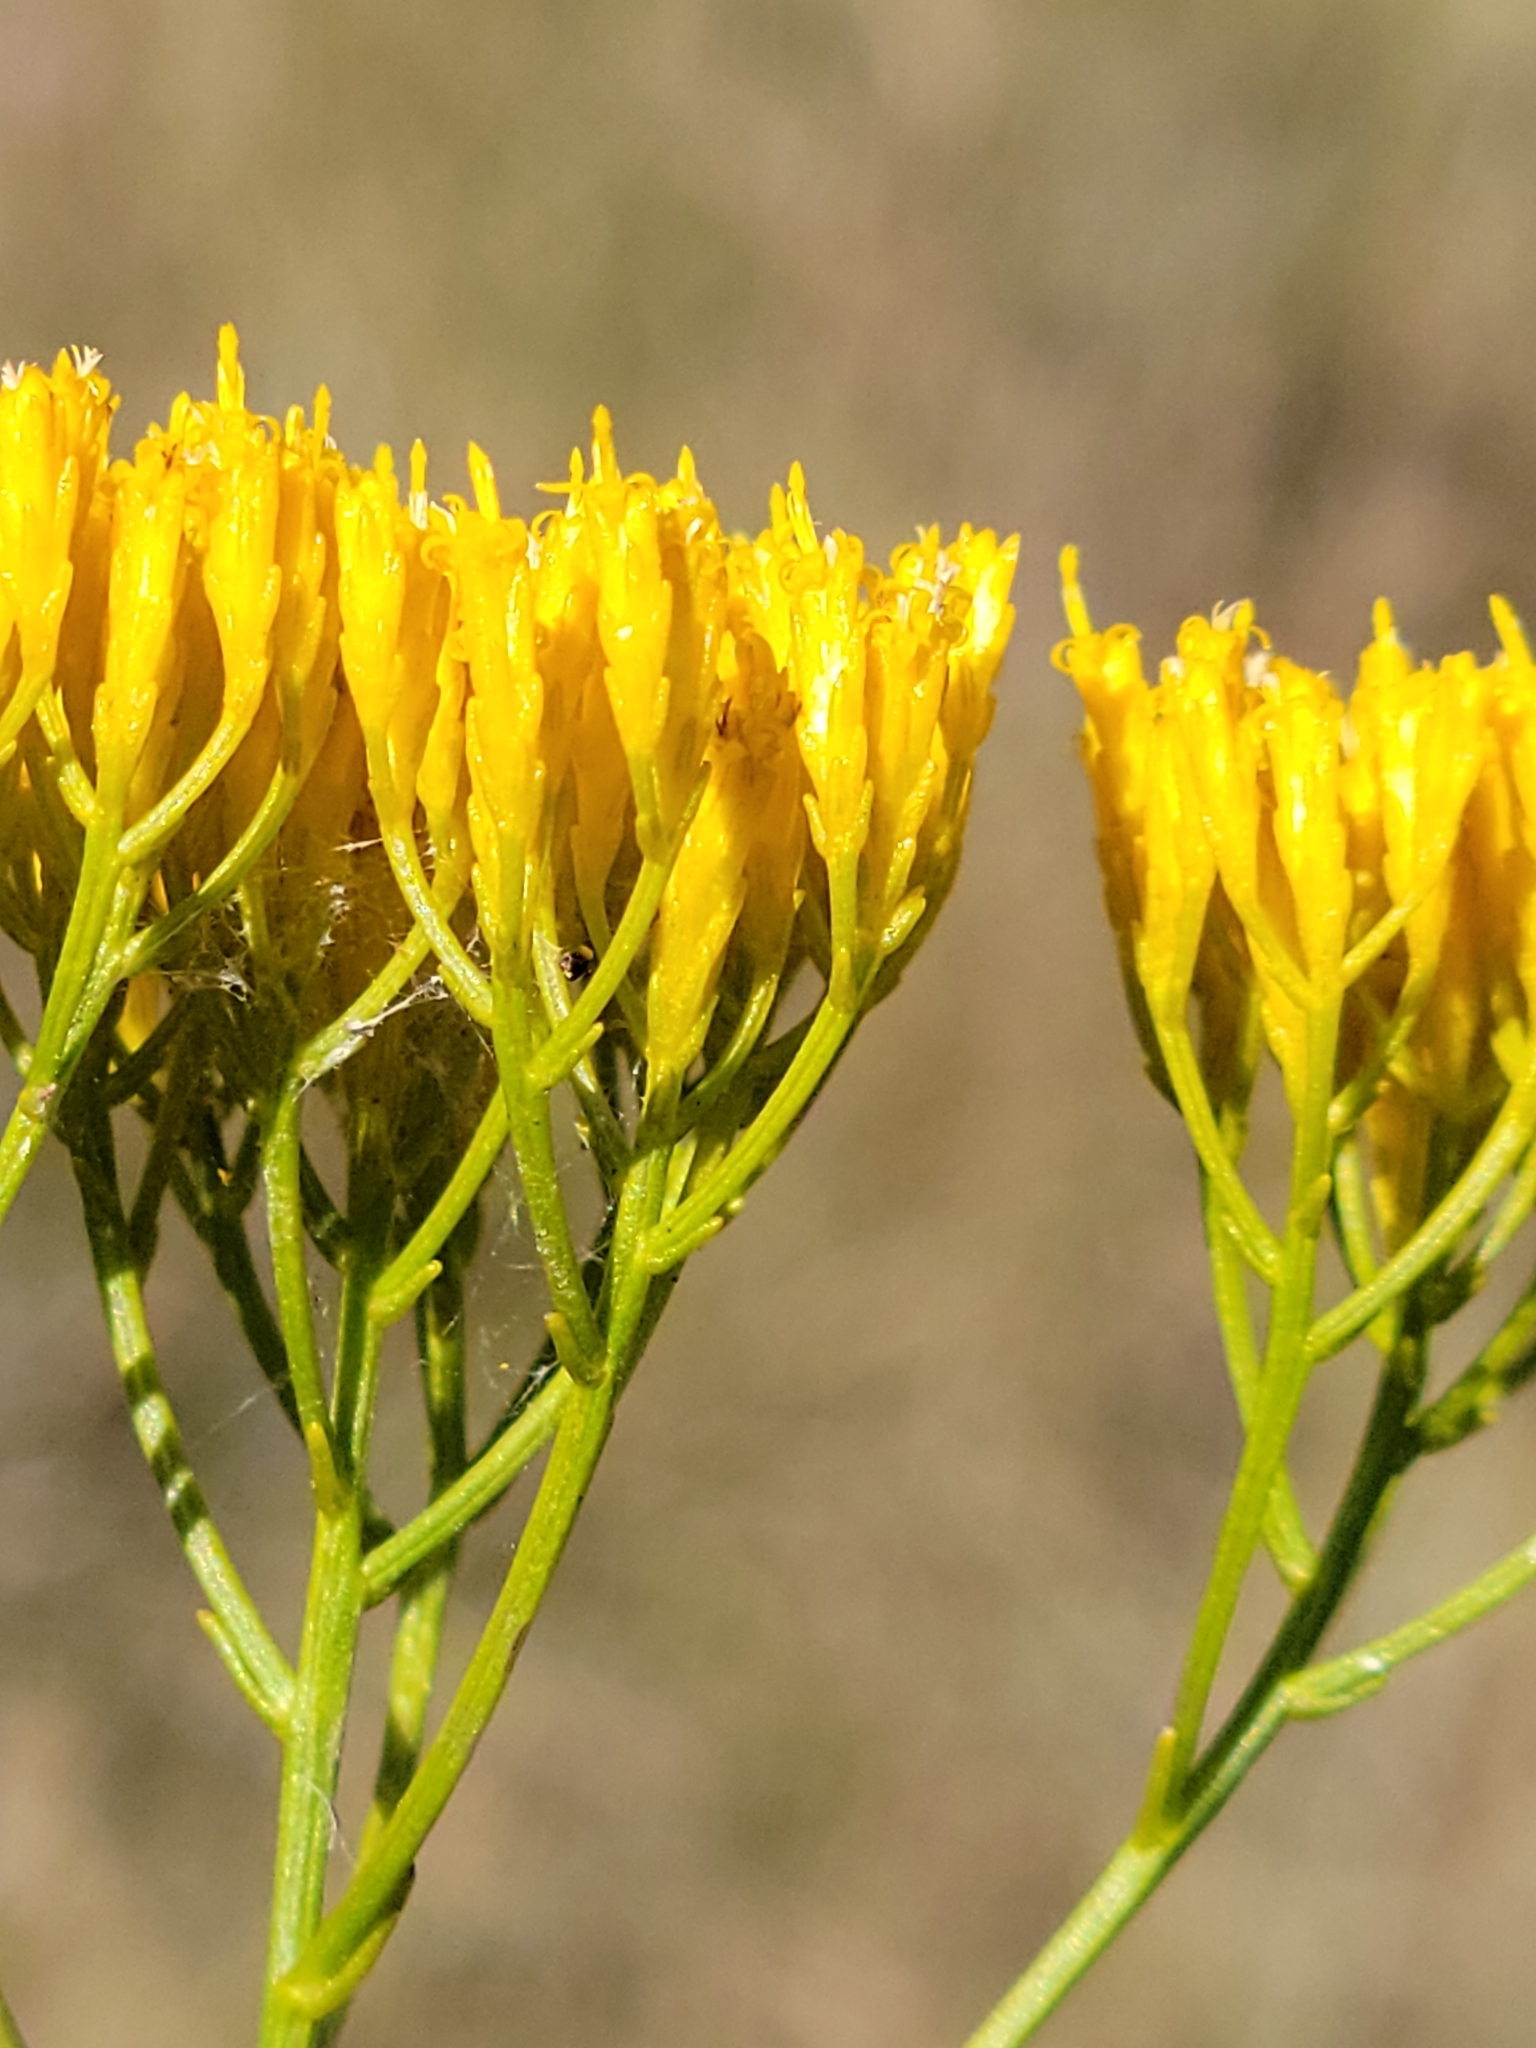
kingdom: Plantae
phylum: Tracheophyta
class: Magnoliopsida
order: Asterales
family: Asteraceae
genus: Bigelowia
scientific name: Bigelowia nudata
